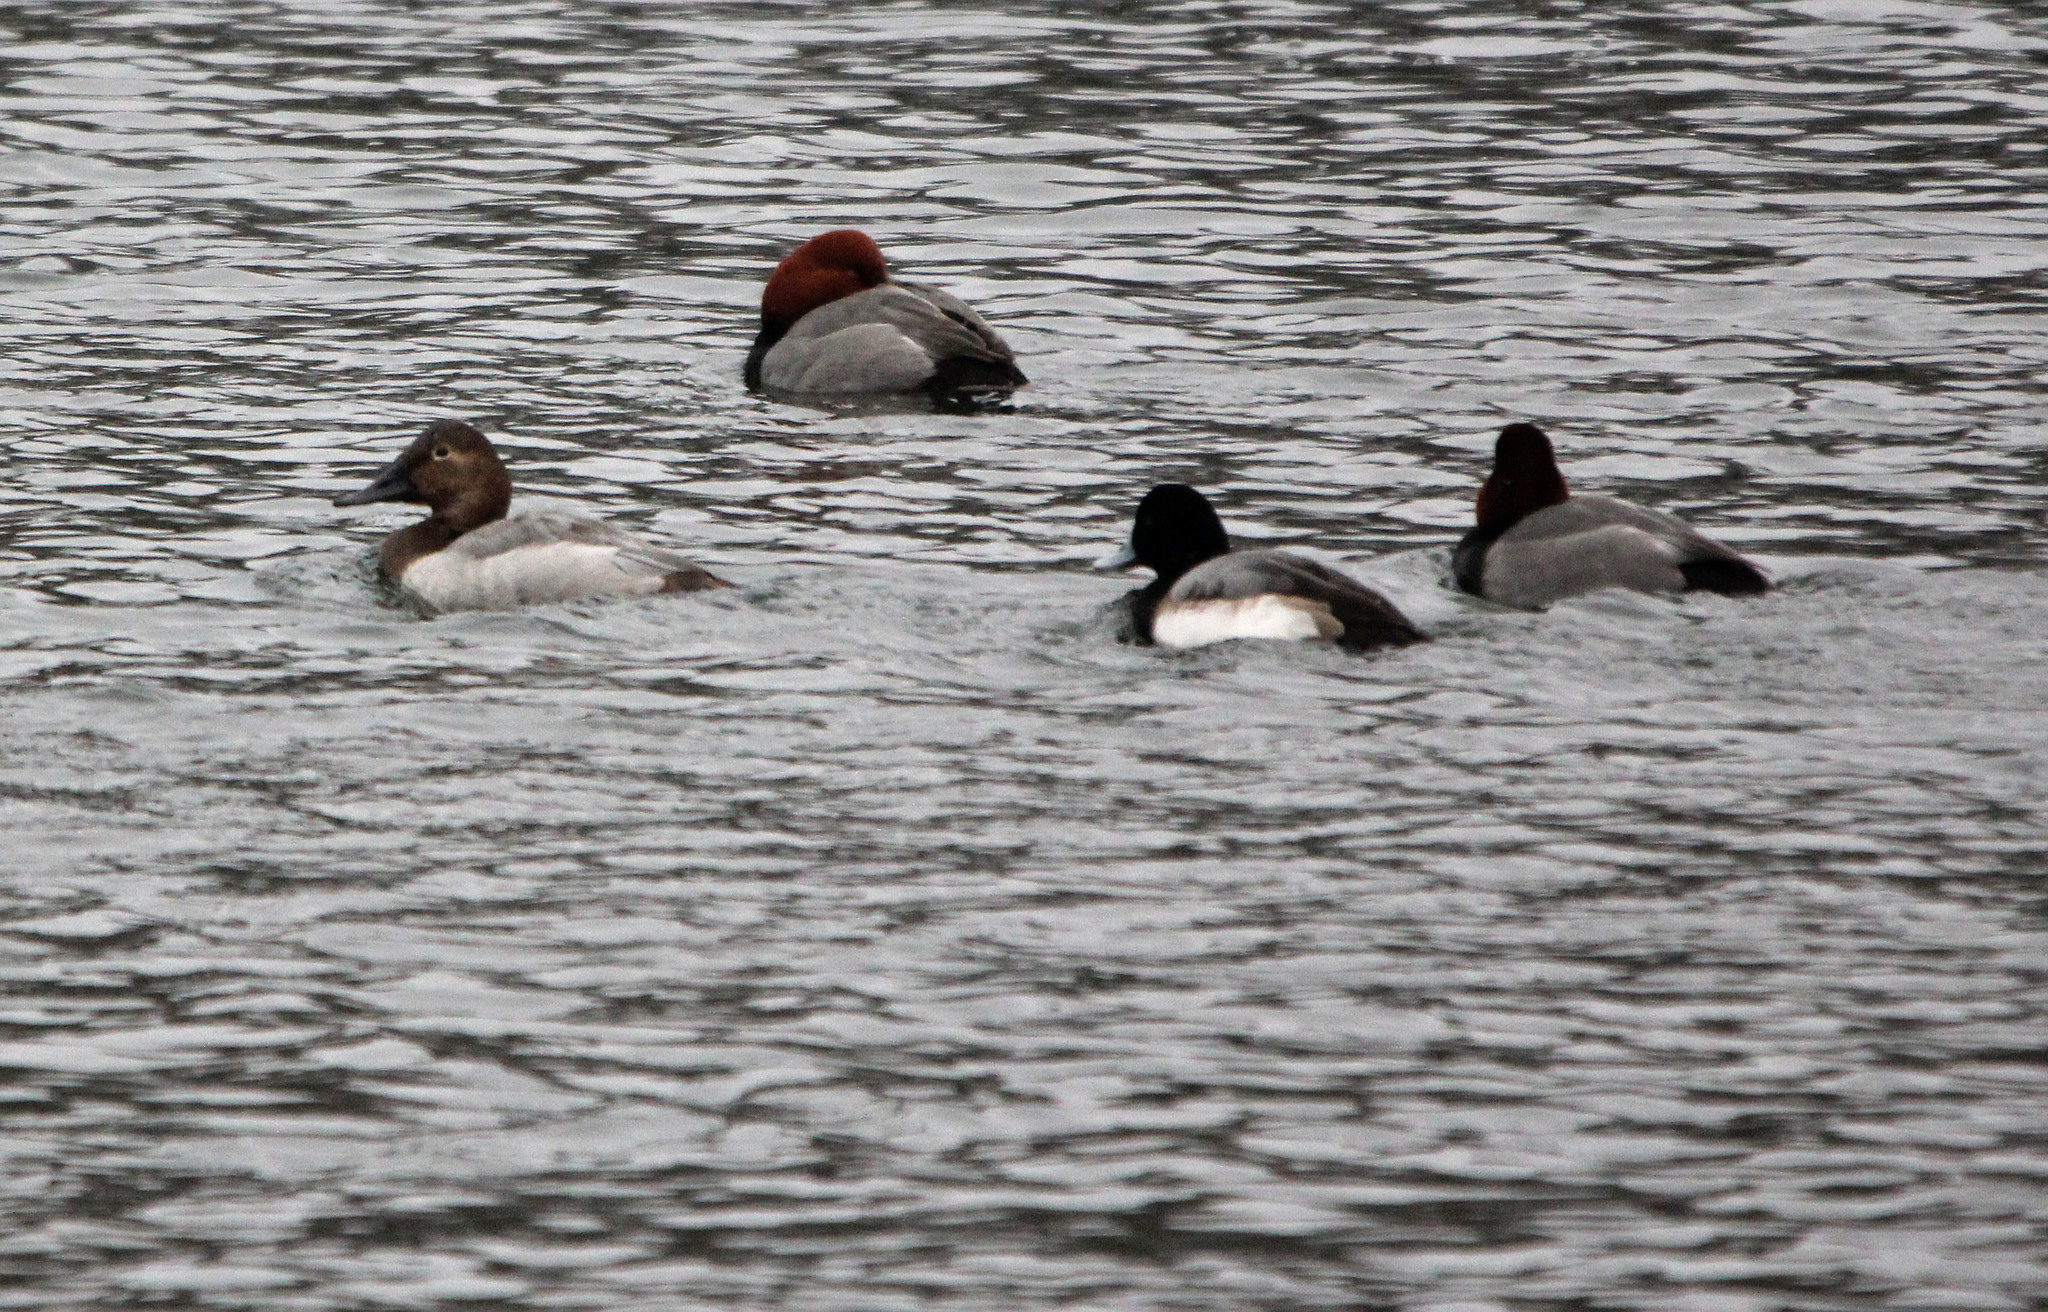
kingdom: Animalia
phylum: Chordata
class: Aves
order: Anseriformes
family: Anatidae
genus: Aythya
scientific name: Aythya valisineria
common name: Canvasback
